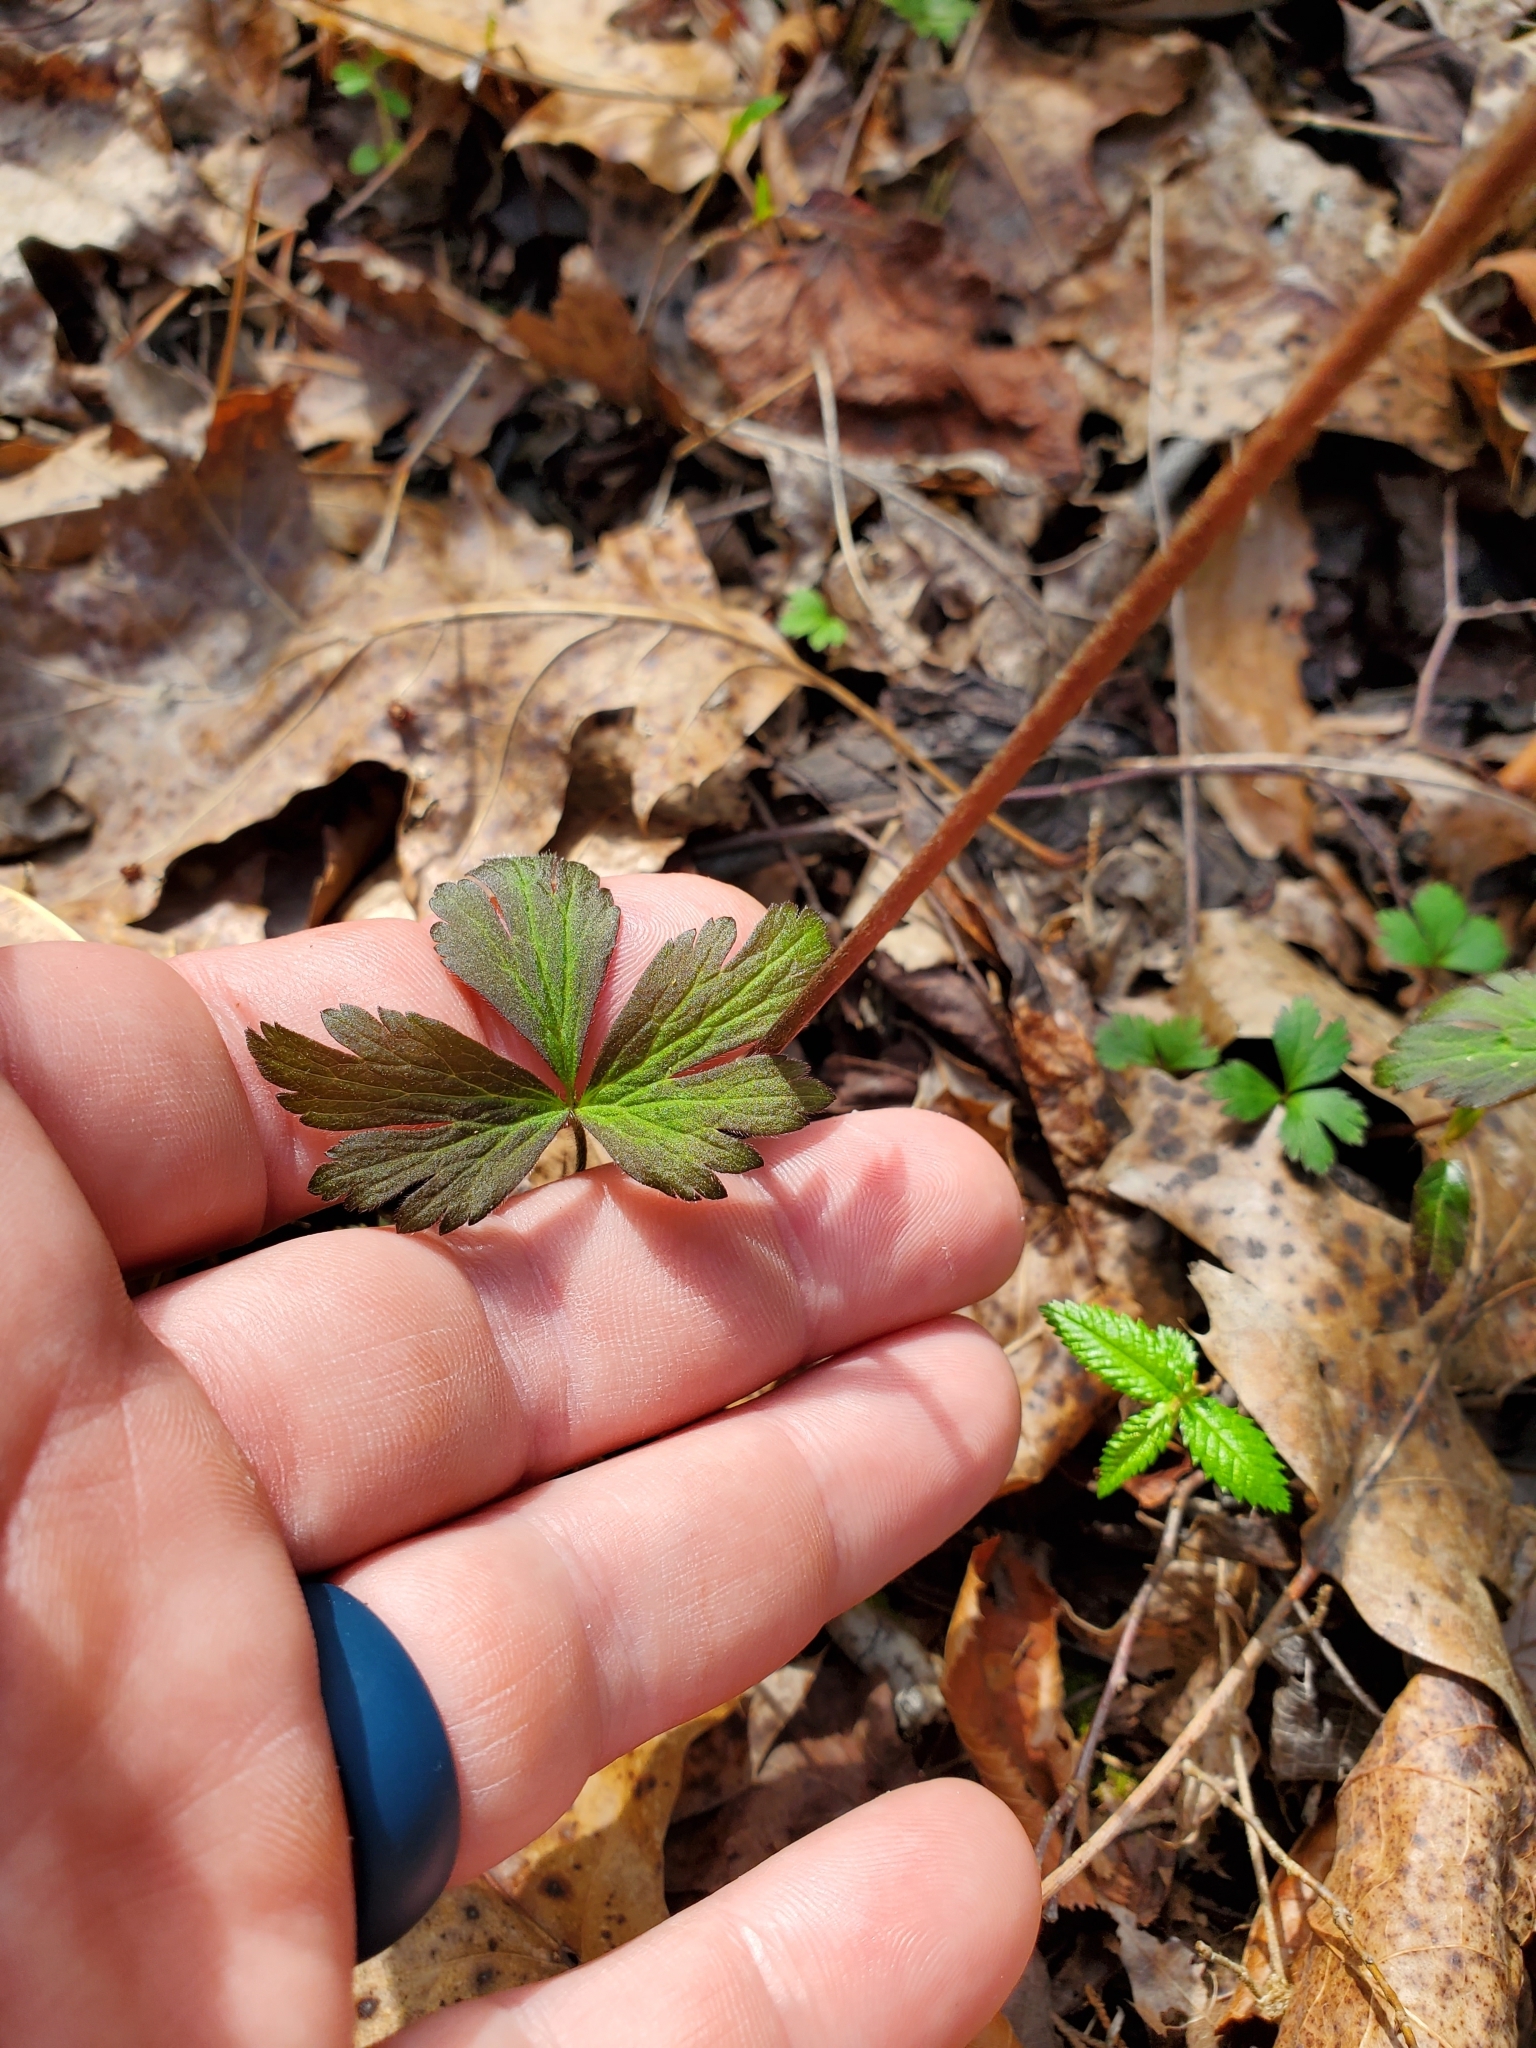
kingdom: Plantae
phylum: Tracheophyta
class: Magnoliopsida
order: Ranunculales
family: Ranunculaceae
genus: Anemone
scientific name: Anemone virginiana
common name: Tall anemone
